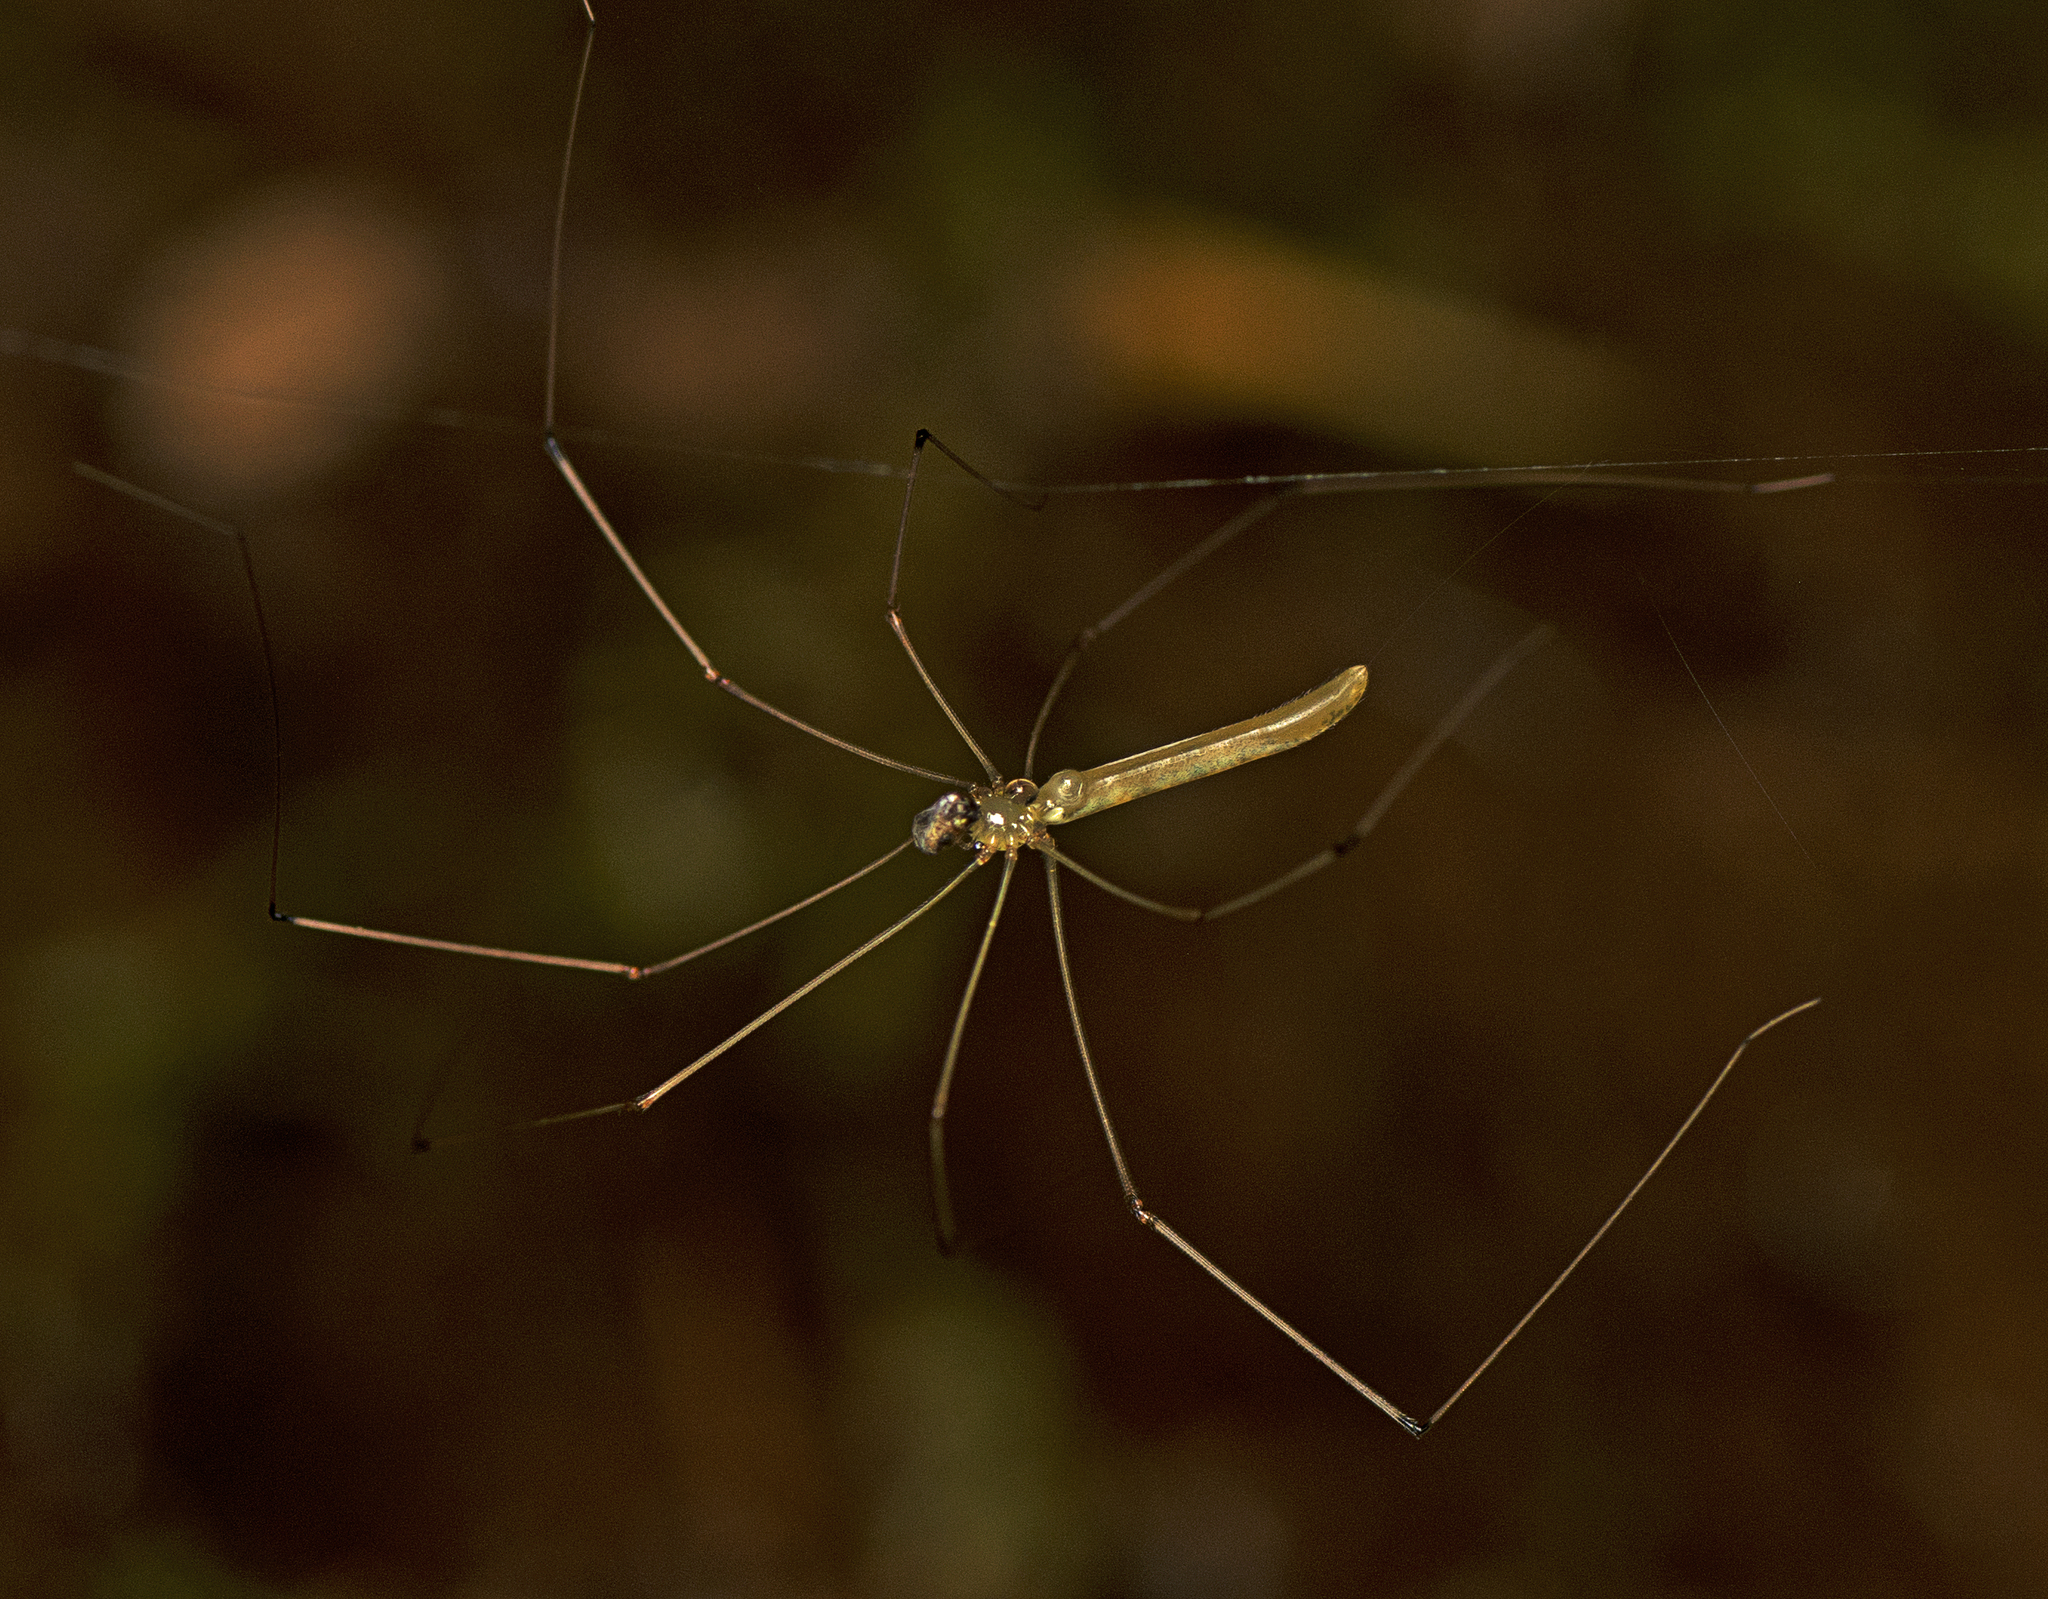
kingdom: Animalia
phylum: Arthropoda
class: Arachnida
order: Araneae
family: Pholcidae
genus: Micromerys
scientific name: Micromerys raveni
